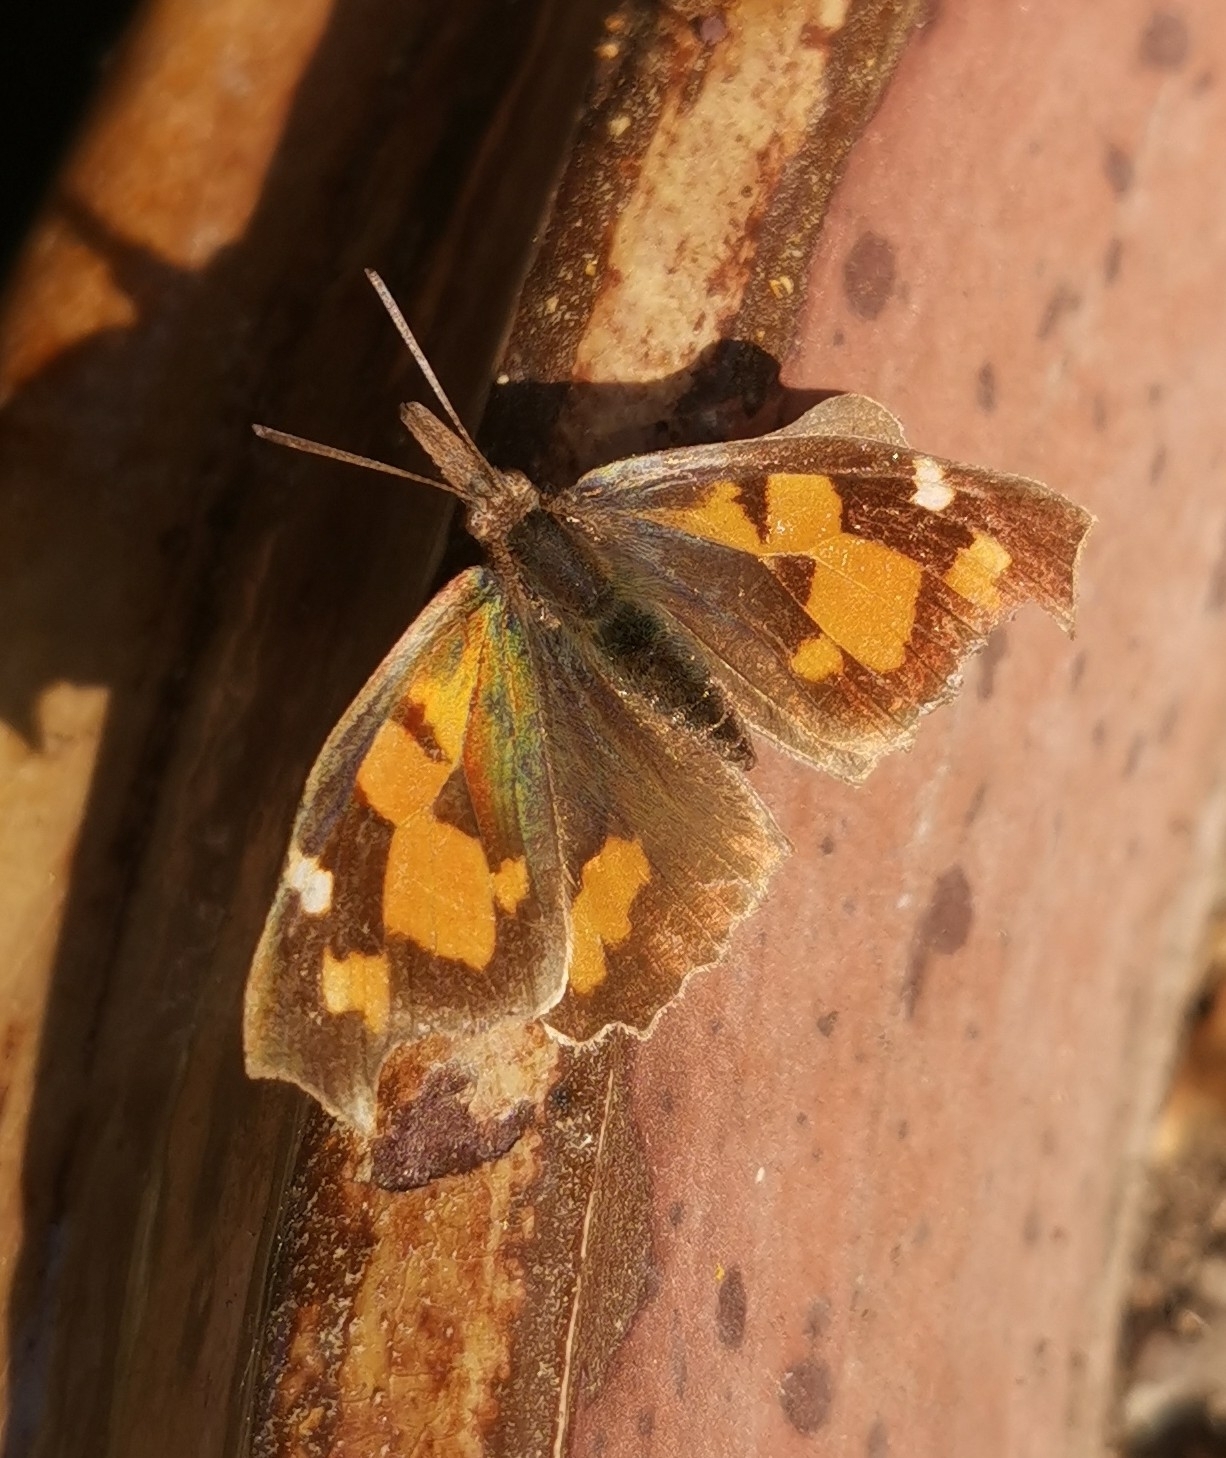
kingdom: Animalia
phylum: Arthropoda
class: Insecta
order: Lepidoptera
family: Nymphalidae
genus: Libythea
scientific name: Libythea celtis
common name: Nettle-tree butterfly
